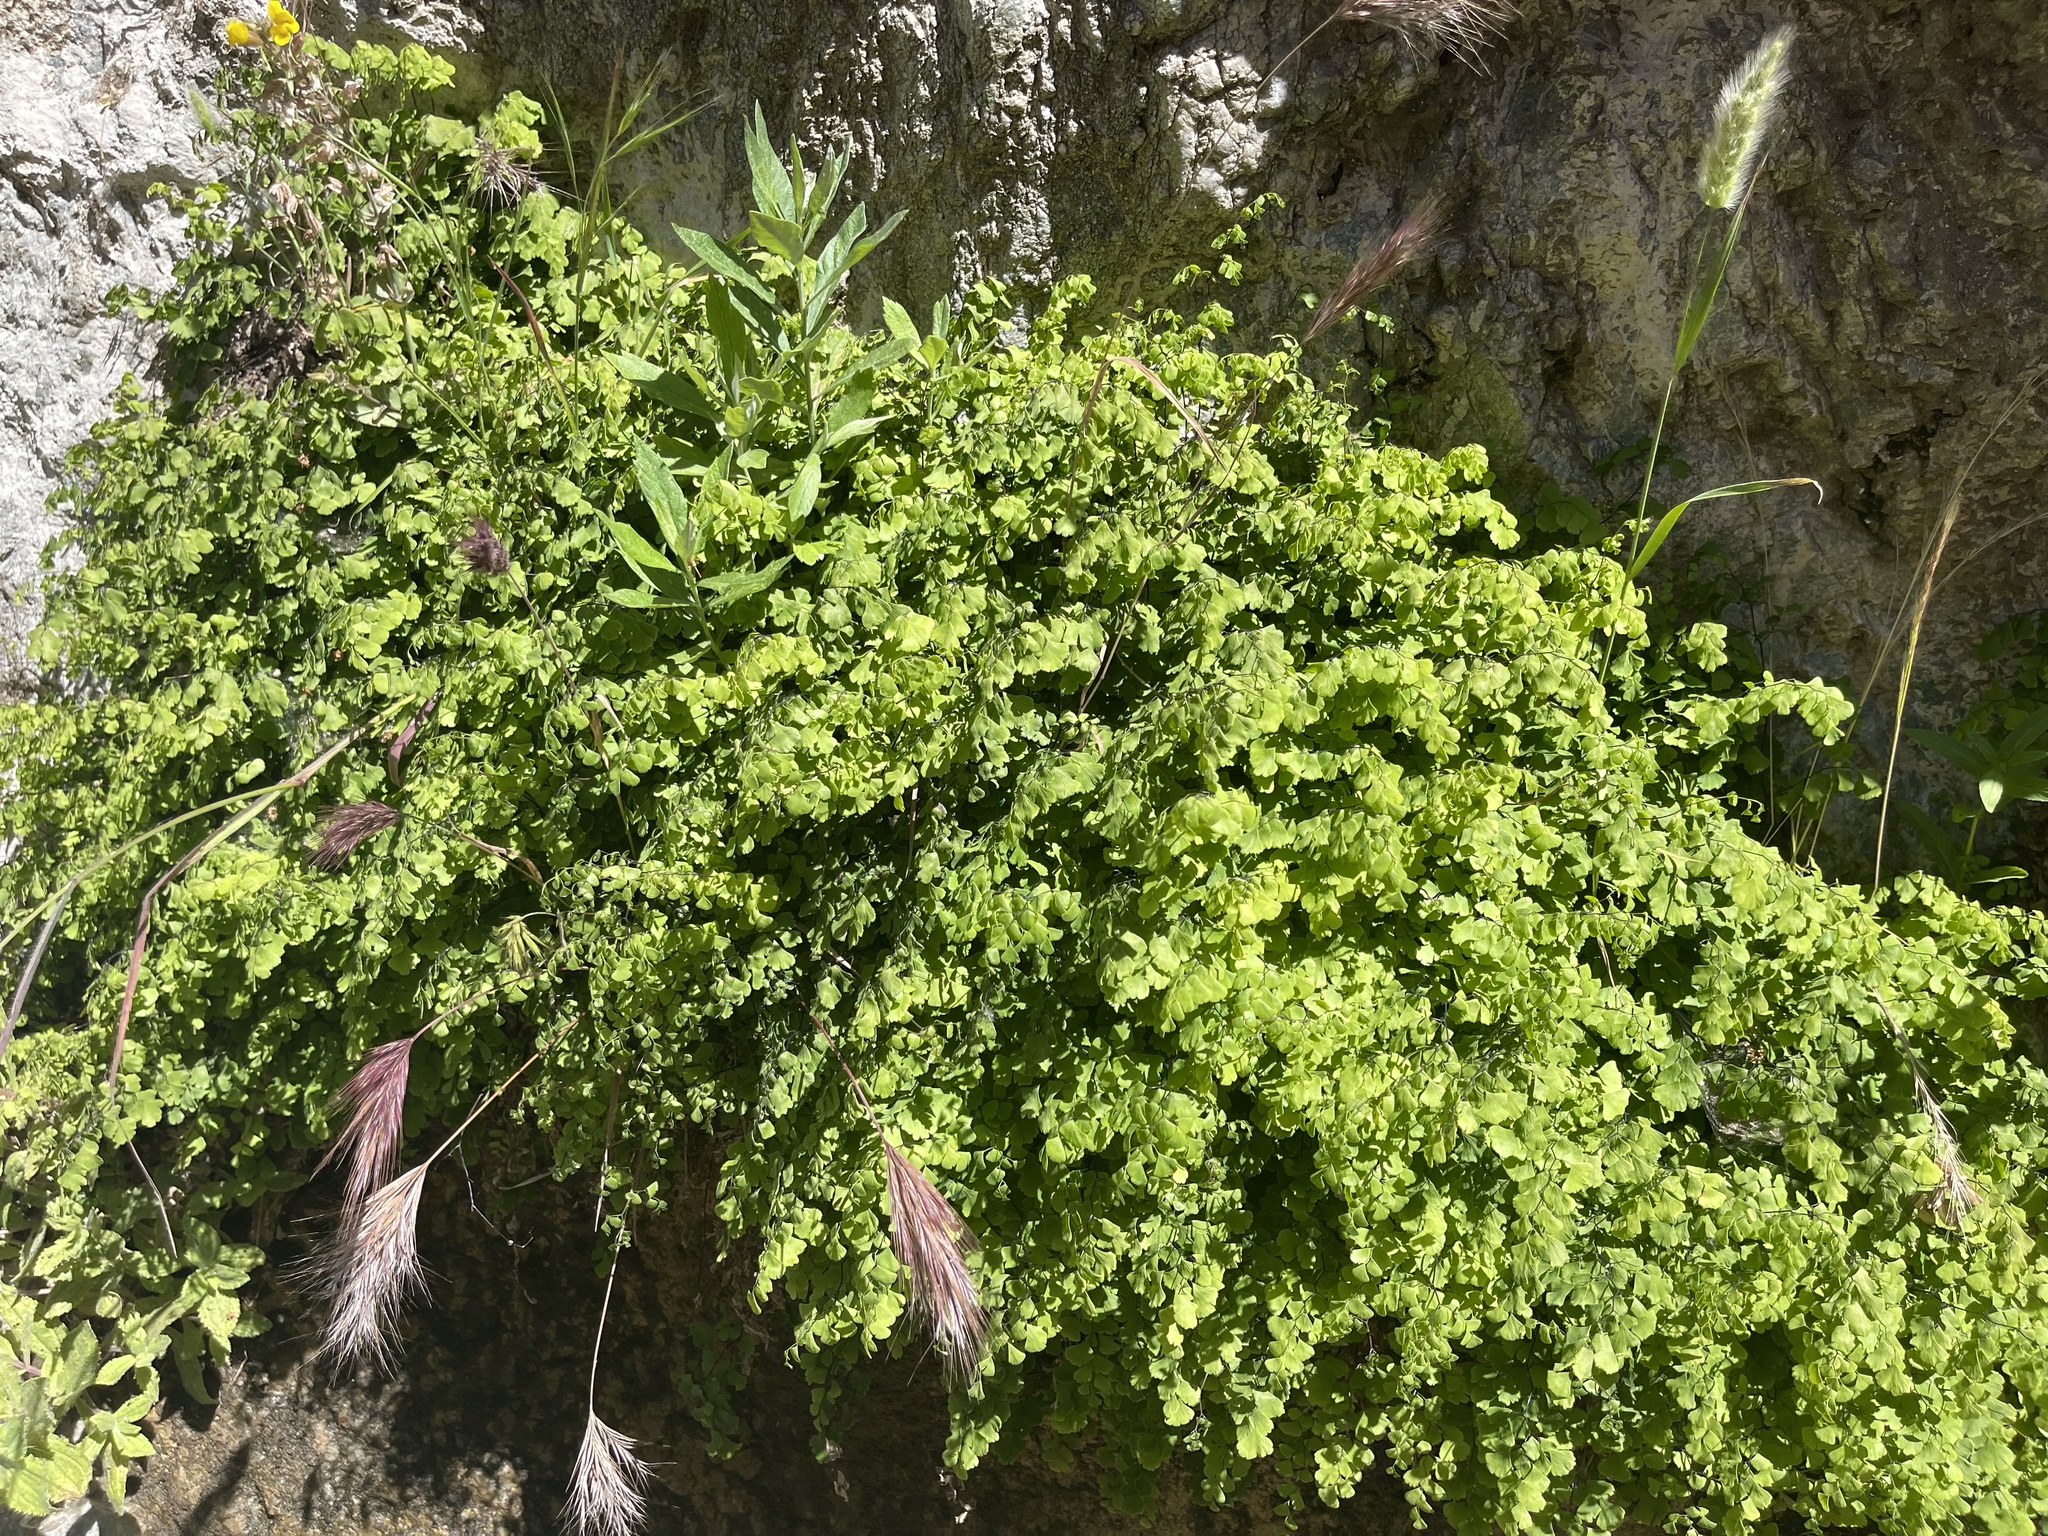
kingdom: Plantae
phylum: Tracheophyta
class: Polypodiopsida
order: Polypodiales
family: Pteridaceae
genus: Adiantum
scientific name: Adiantum capillus-veneris
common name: Maidenhair fern
